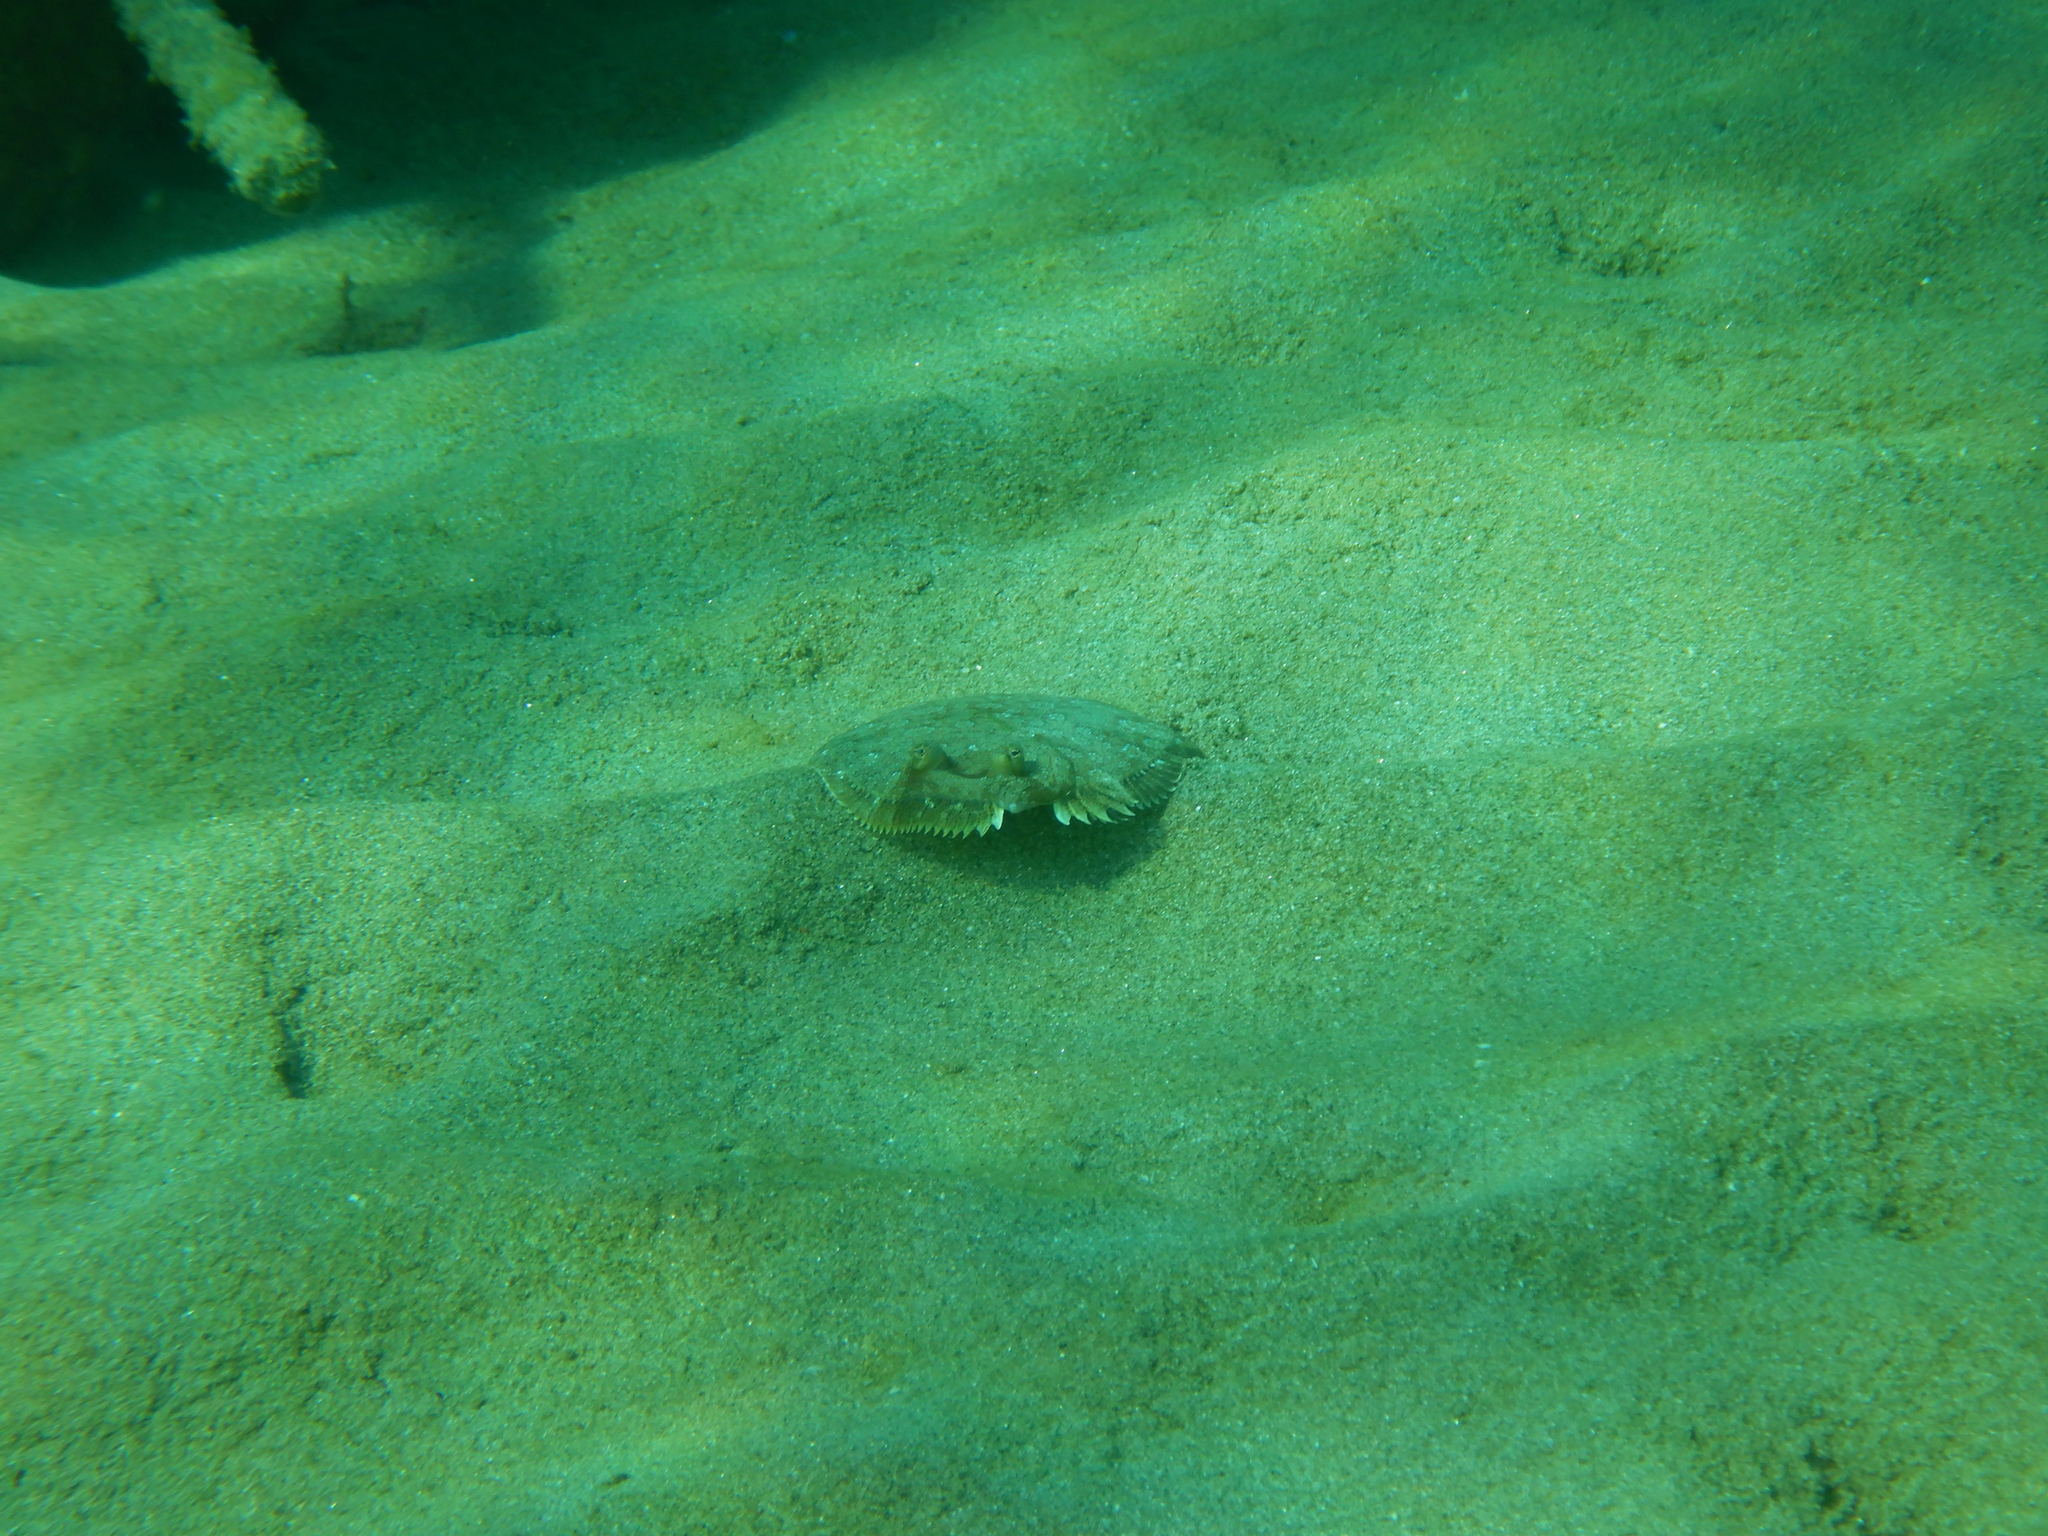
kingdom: Animalia
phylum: Chordata
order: Pleuronectiformes
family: Bothidae
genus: Bothus
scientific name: Bothus podas
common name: Wide-eyed flounder
